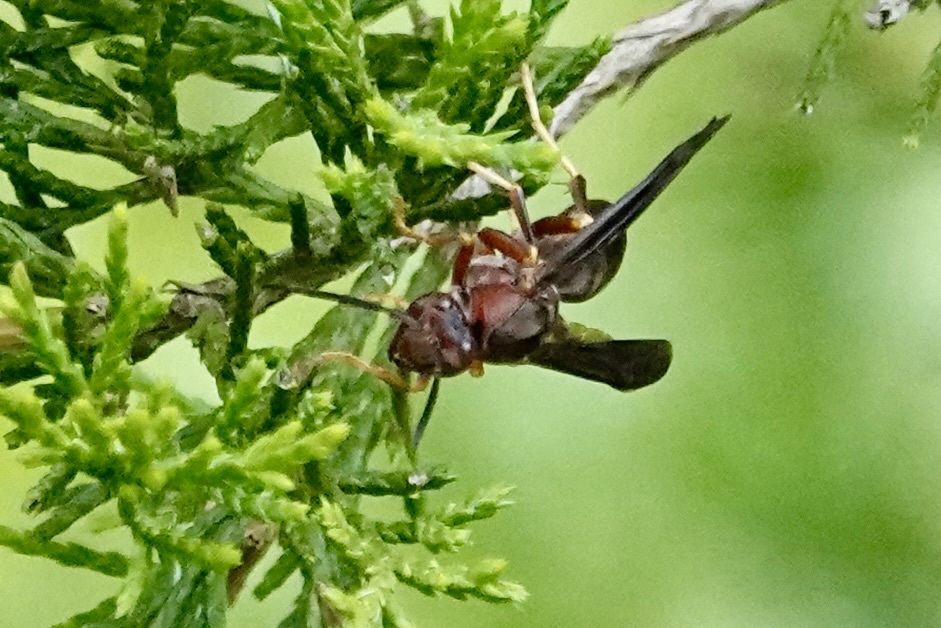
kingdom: Animalia
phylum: Arthropoda
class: Insecta
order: Hymenoptera
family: Eumenidae
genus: Polistes
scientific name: Polistes metricus
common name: Metric paper wasp
